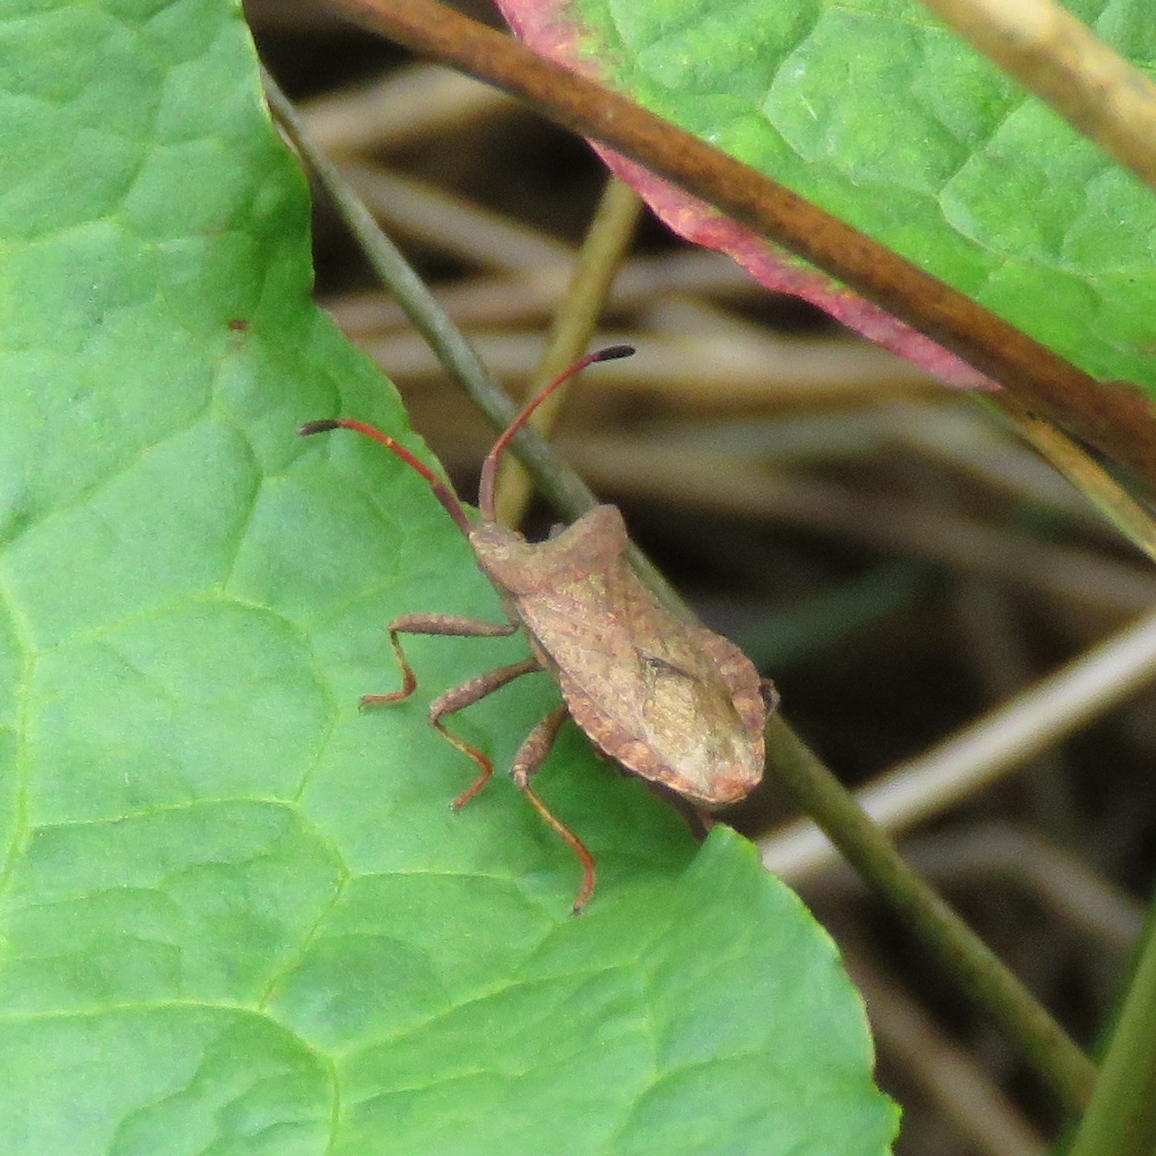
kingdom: Animalia
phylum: Arthropoda
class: Insecta
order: Hemiptera
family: Coreidae
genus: Coreus
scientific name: Coreus marginatus
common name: Dock bug
